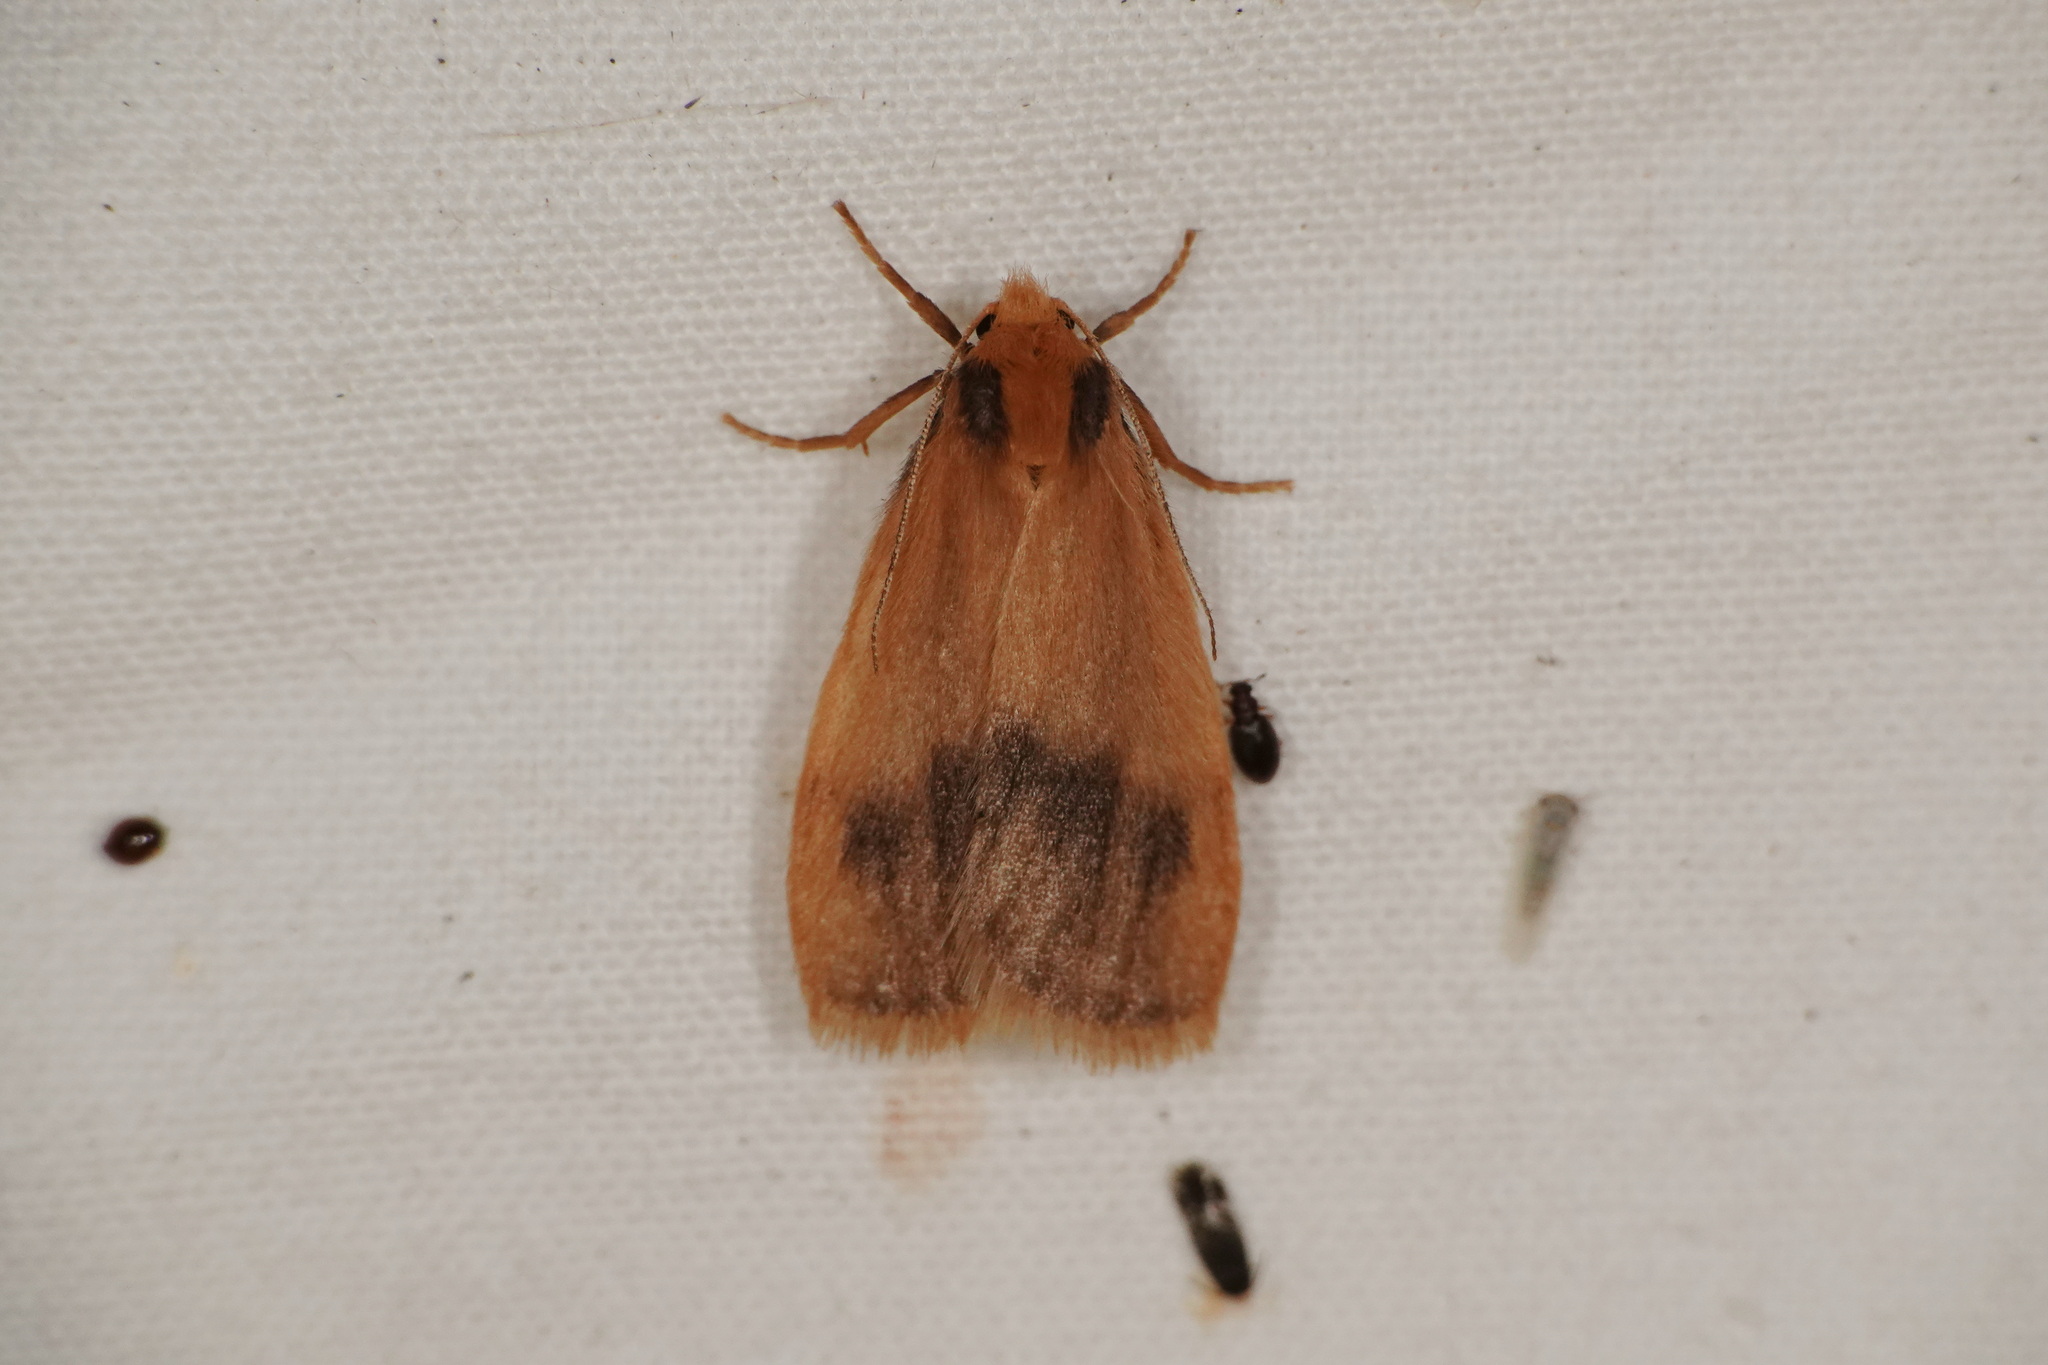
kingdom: Animalia
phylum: Arthropoda
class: Insecta
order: Lepidoptera
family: Erebidae
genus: Threnosia
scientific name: Threnosia heminephes
